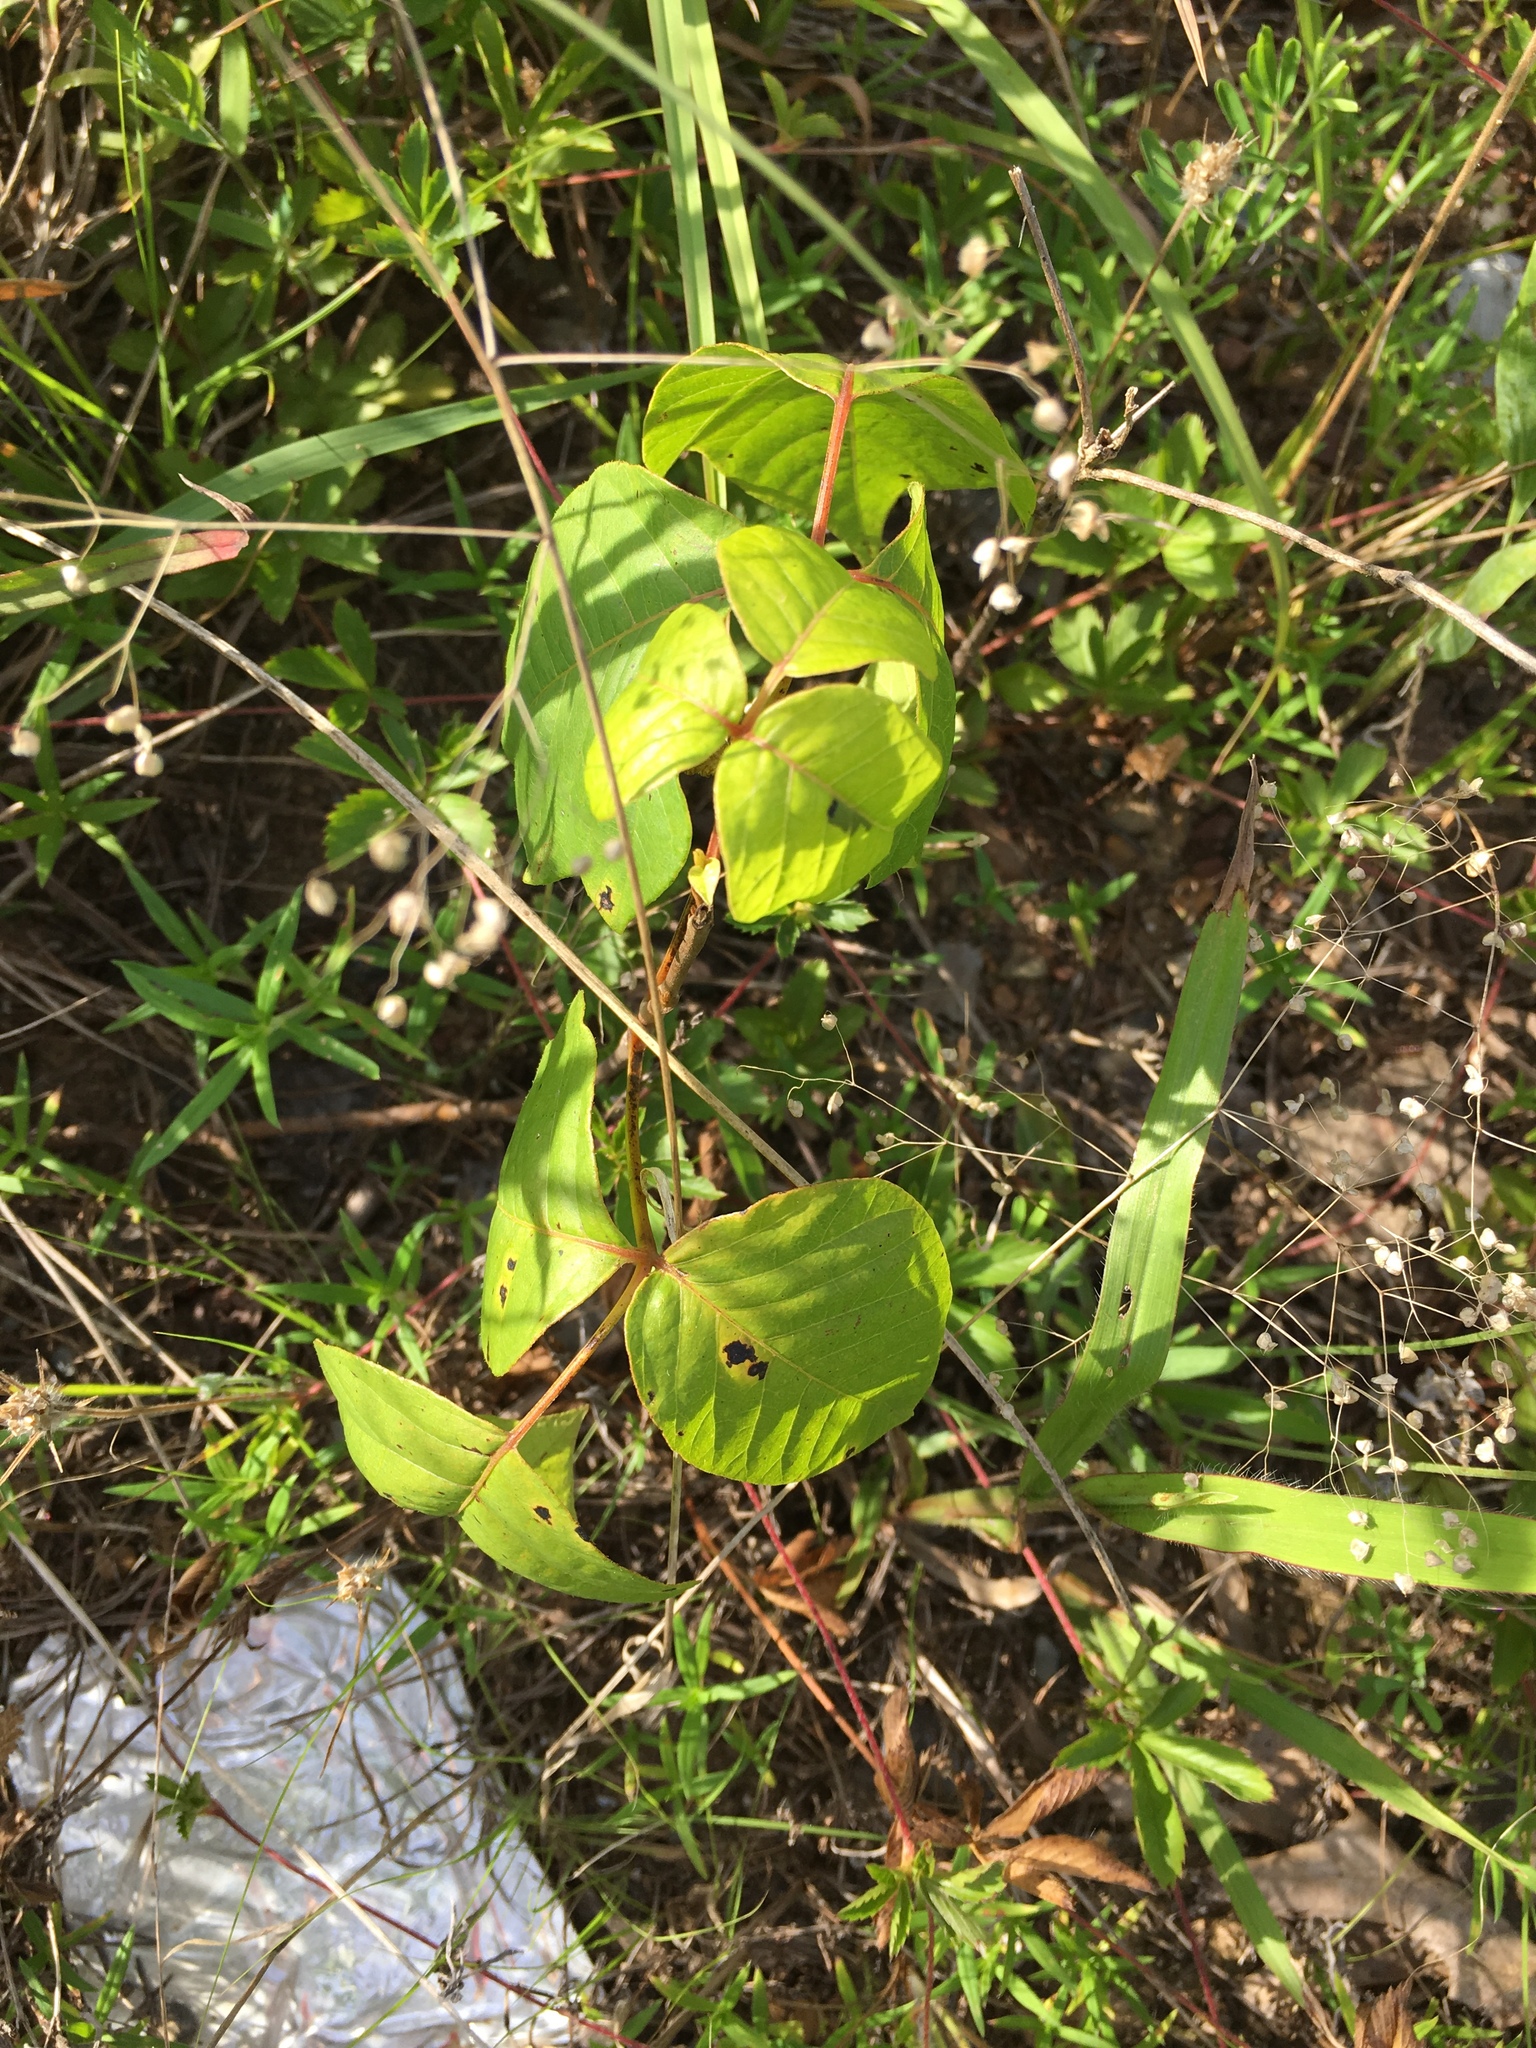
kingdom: Plantae
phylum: Tracheophyta
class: Magnoliopsida
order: Sapindales
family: Anacardiaceae
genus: Toxicodendron
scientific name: Toxicodendron radicans
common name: Poison ivy
